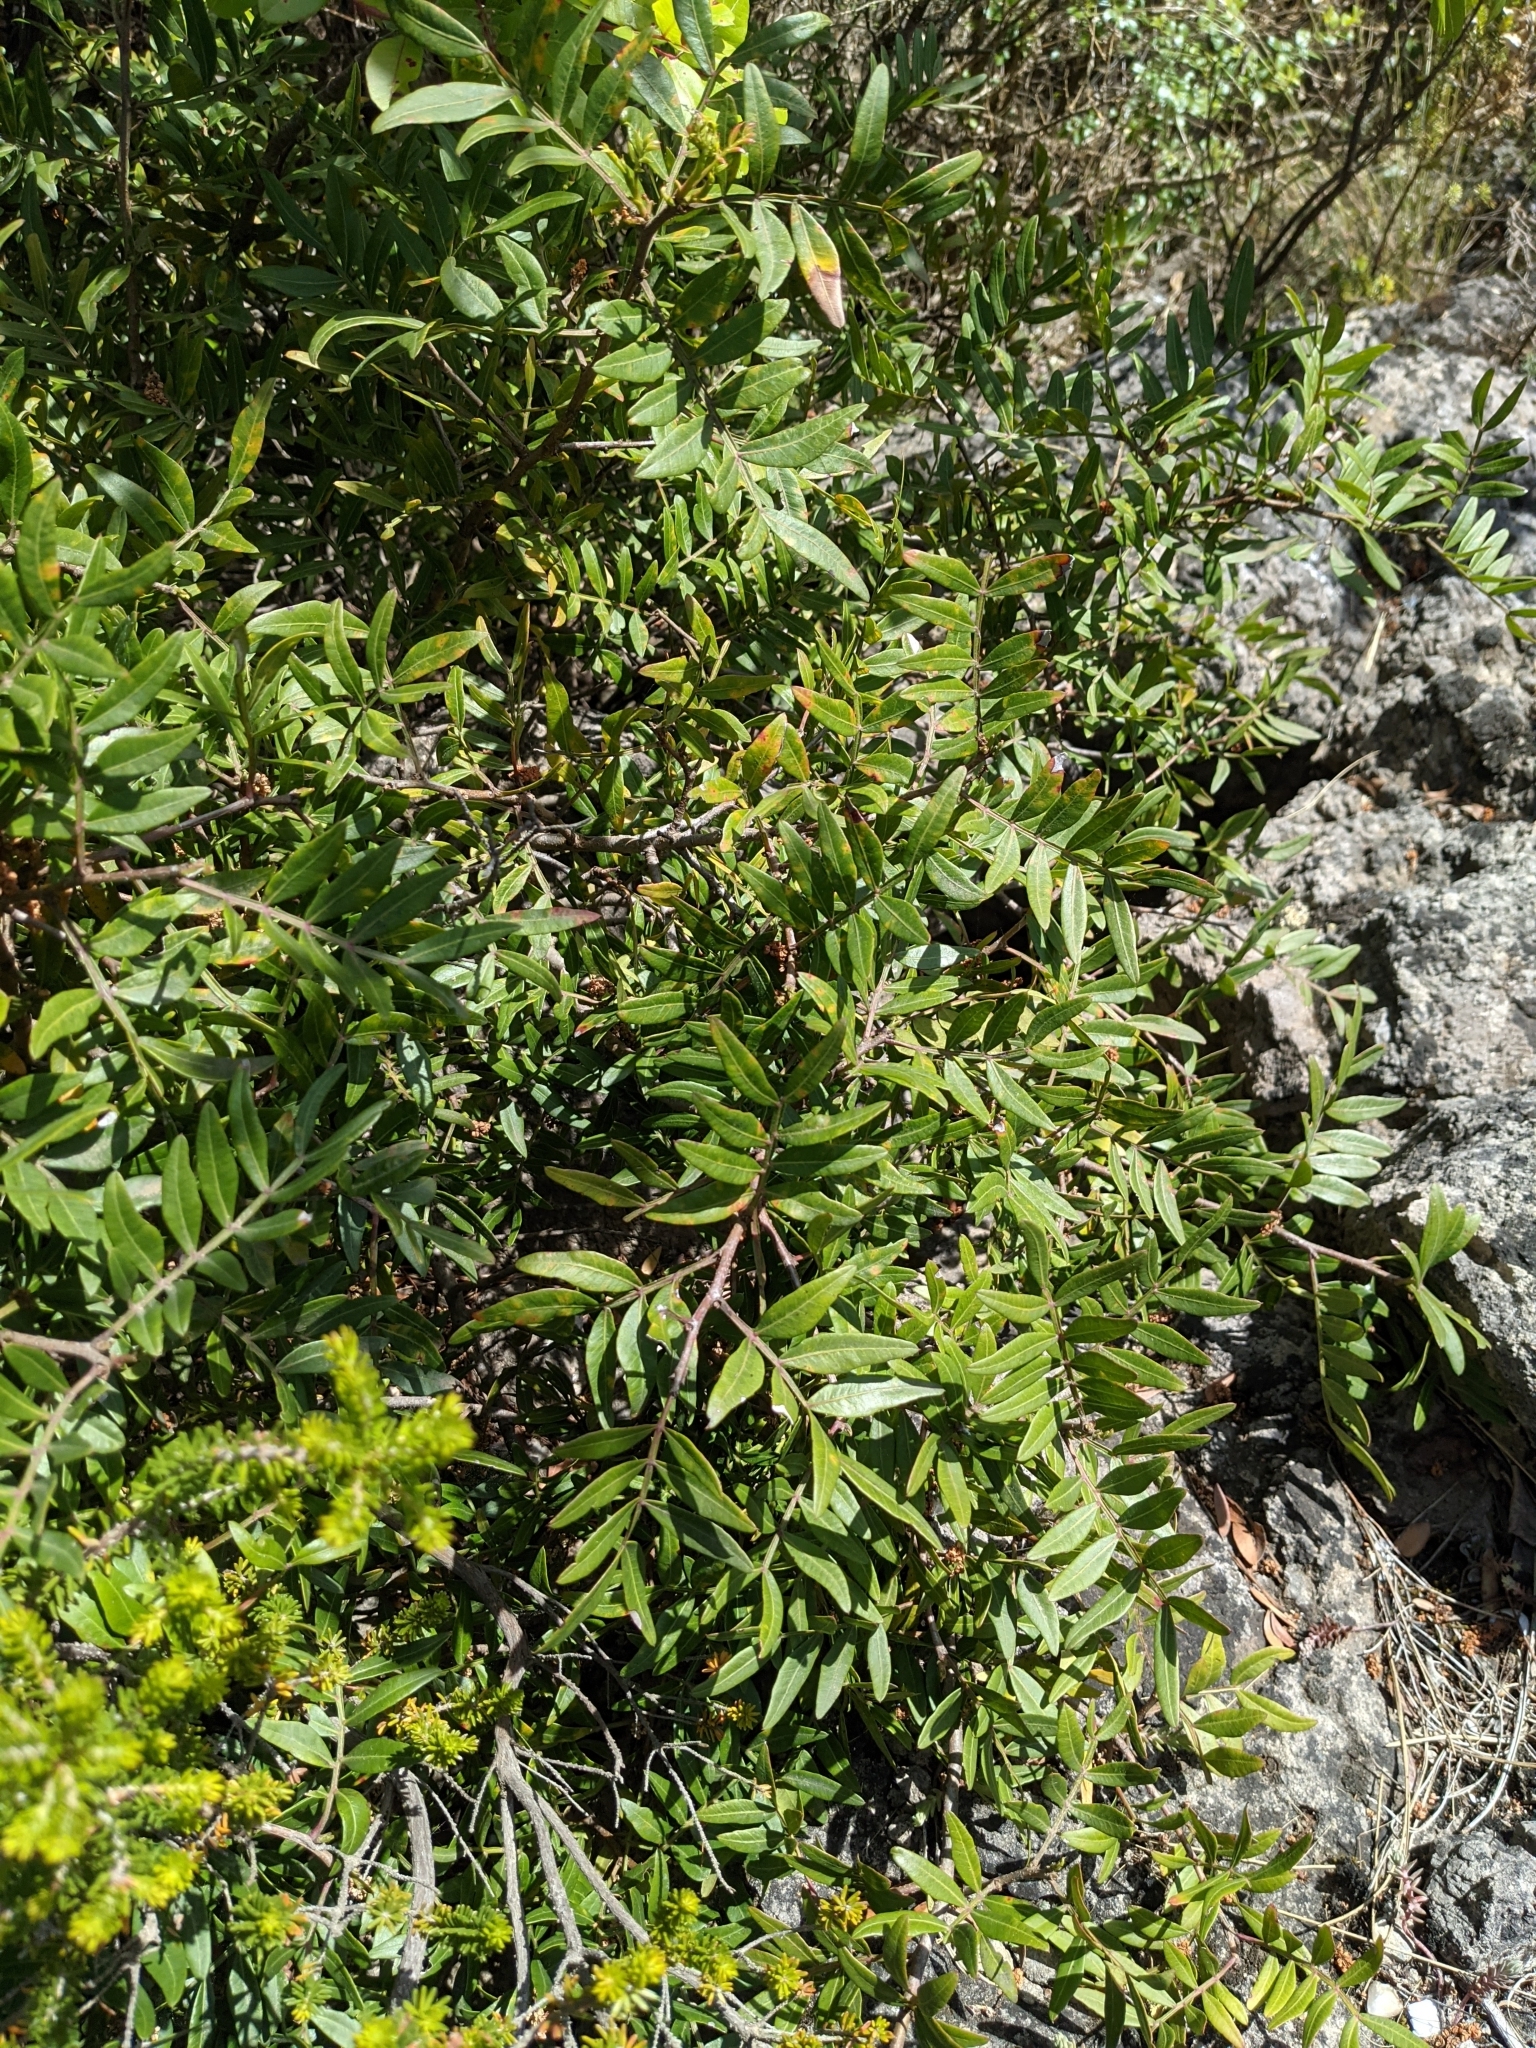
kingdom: Plantae
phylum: Tracheophyta
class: Magnoliopsida
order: Sapindales
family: Anacardiaceae
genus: Pistacia
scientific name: Pistacia lentiscus
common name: Lentisk
